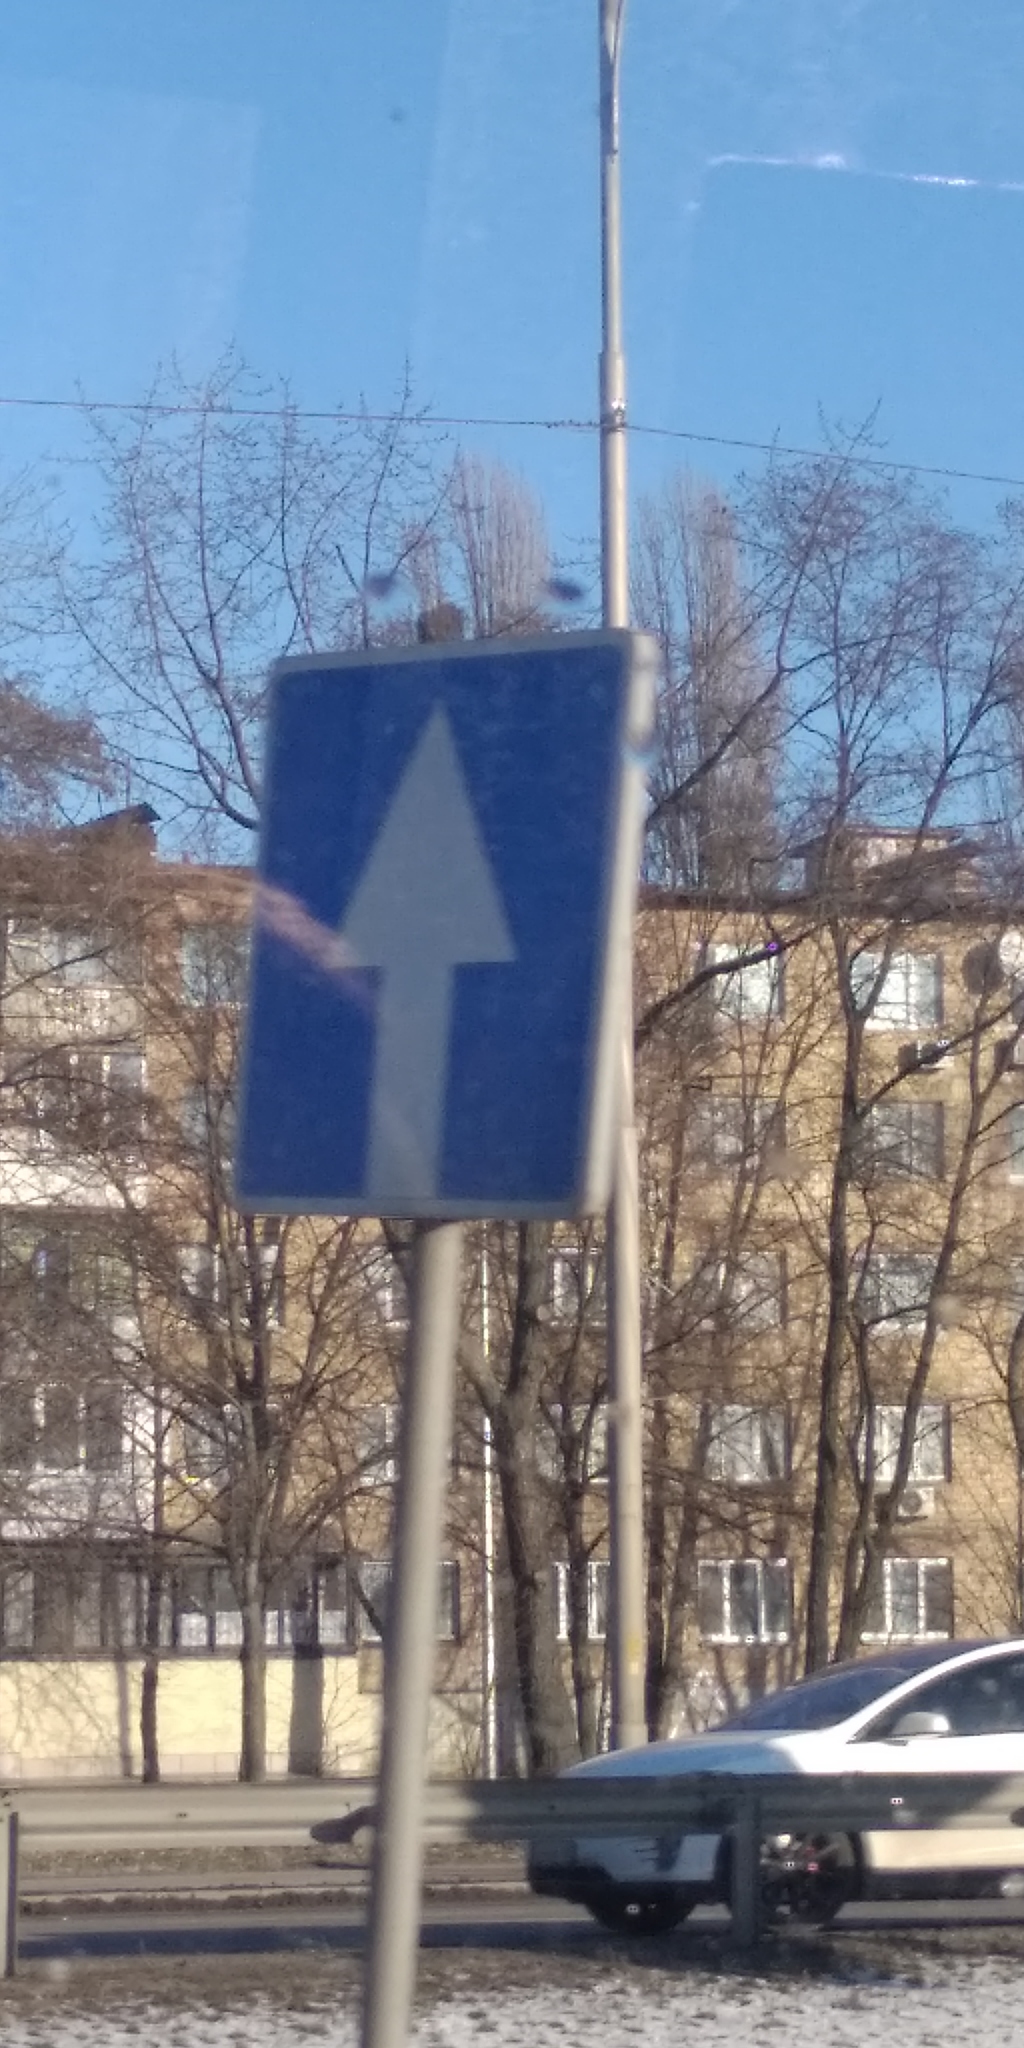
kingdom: Plantae
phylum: Tracheophyta
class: Magnoliopsida
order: Santalales
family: Viscaceae
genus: Viscum
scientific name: Viscum album
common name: Mistletoe
